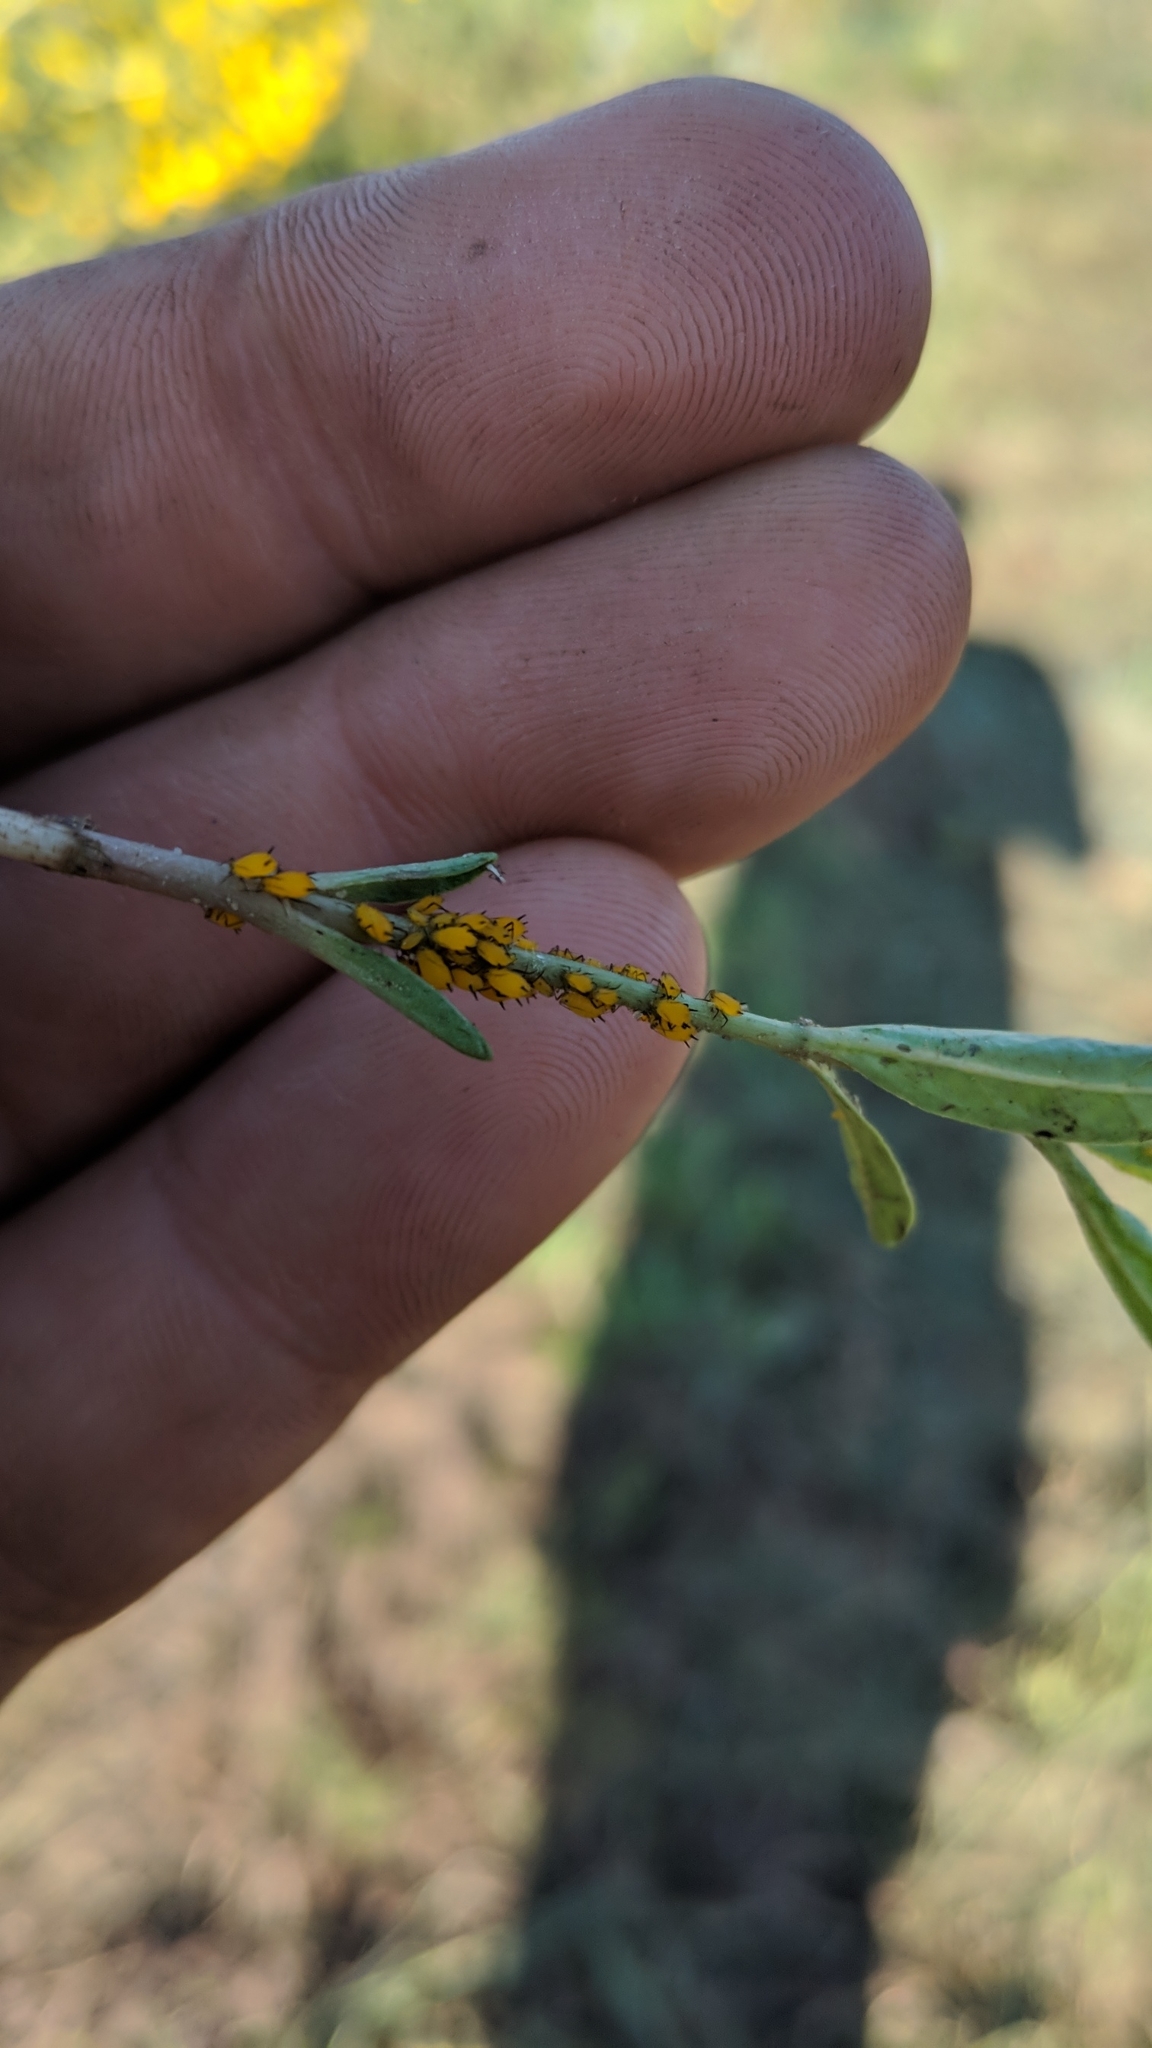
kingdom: Animalia
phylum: Arthropoda
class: Insecta
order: Hemiptera
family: Aphididae
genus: Aphis
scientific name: Aphis nerii
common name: Oleander aphid
